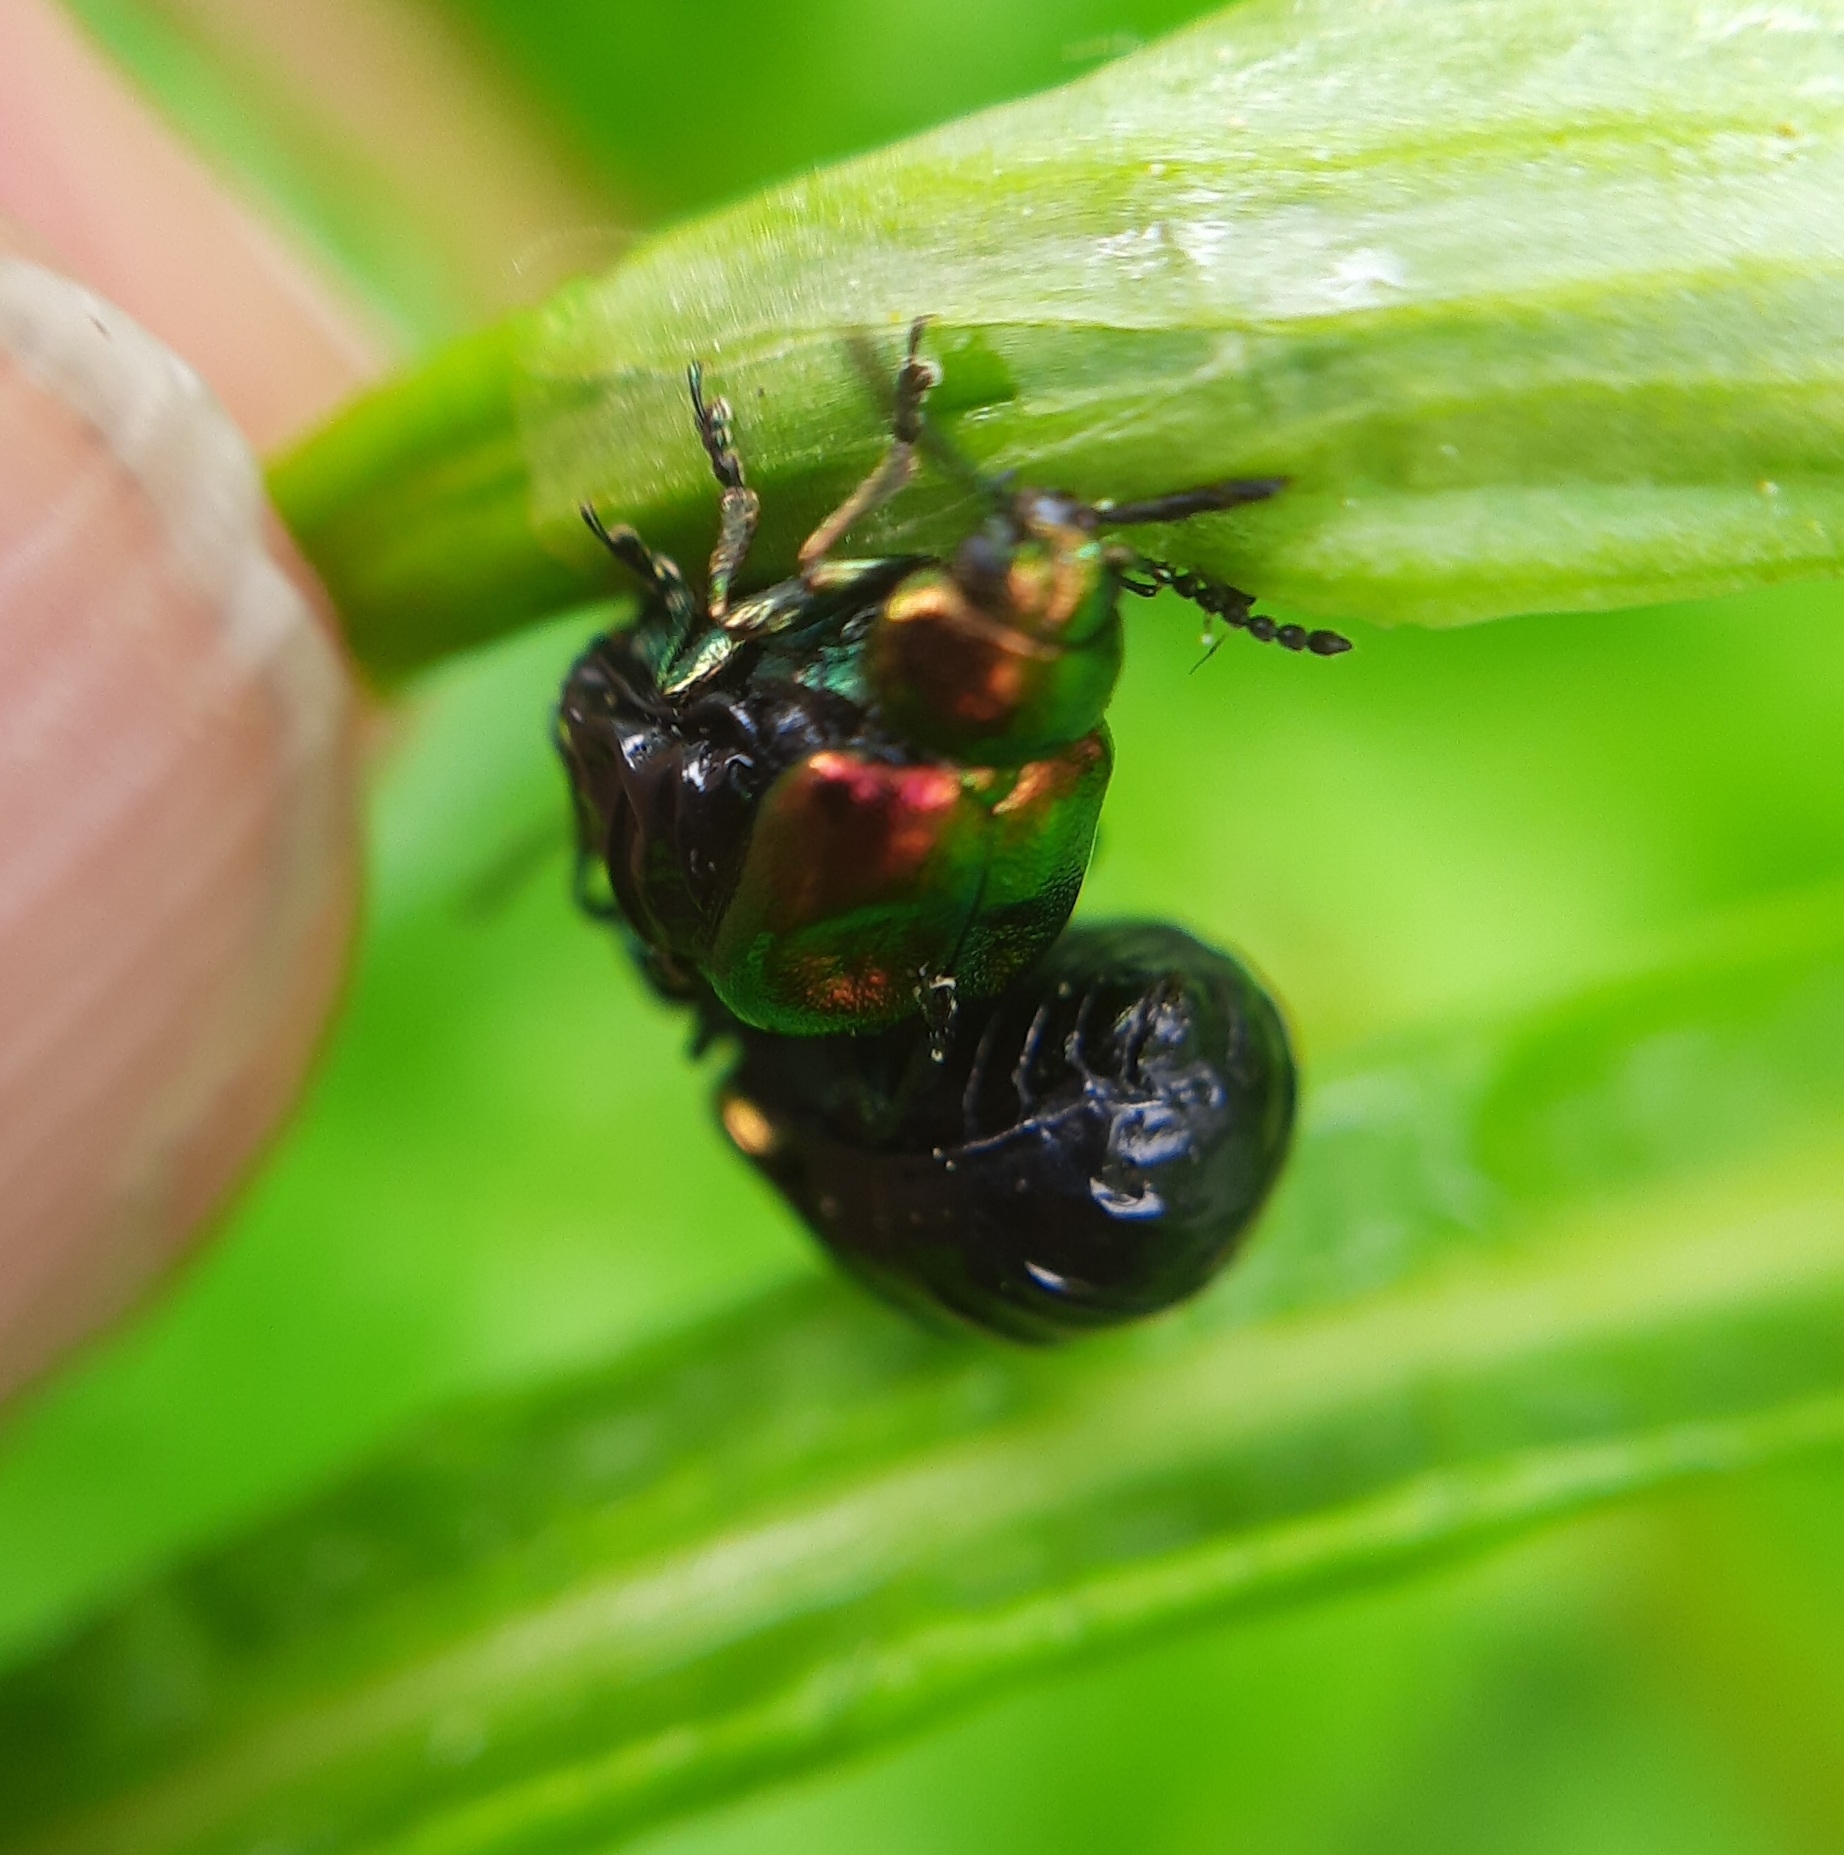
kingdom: Animalia
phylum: Arthropoda
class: Insecta
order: Coleoptera
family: Chrysomelidae
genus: Gastrophysa
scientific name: Gastrophysa viridula
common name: Green dock beetle
